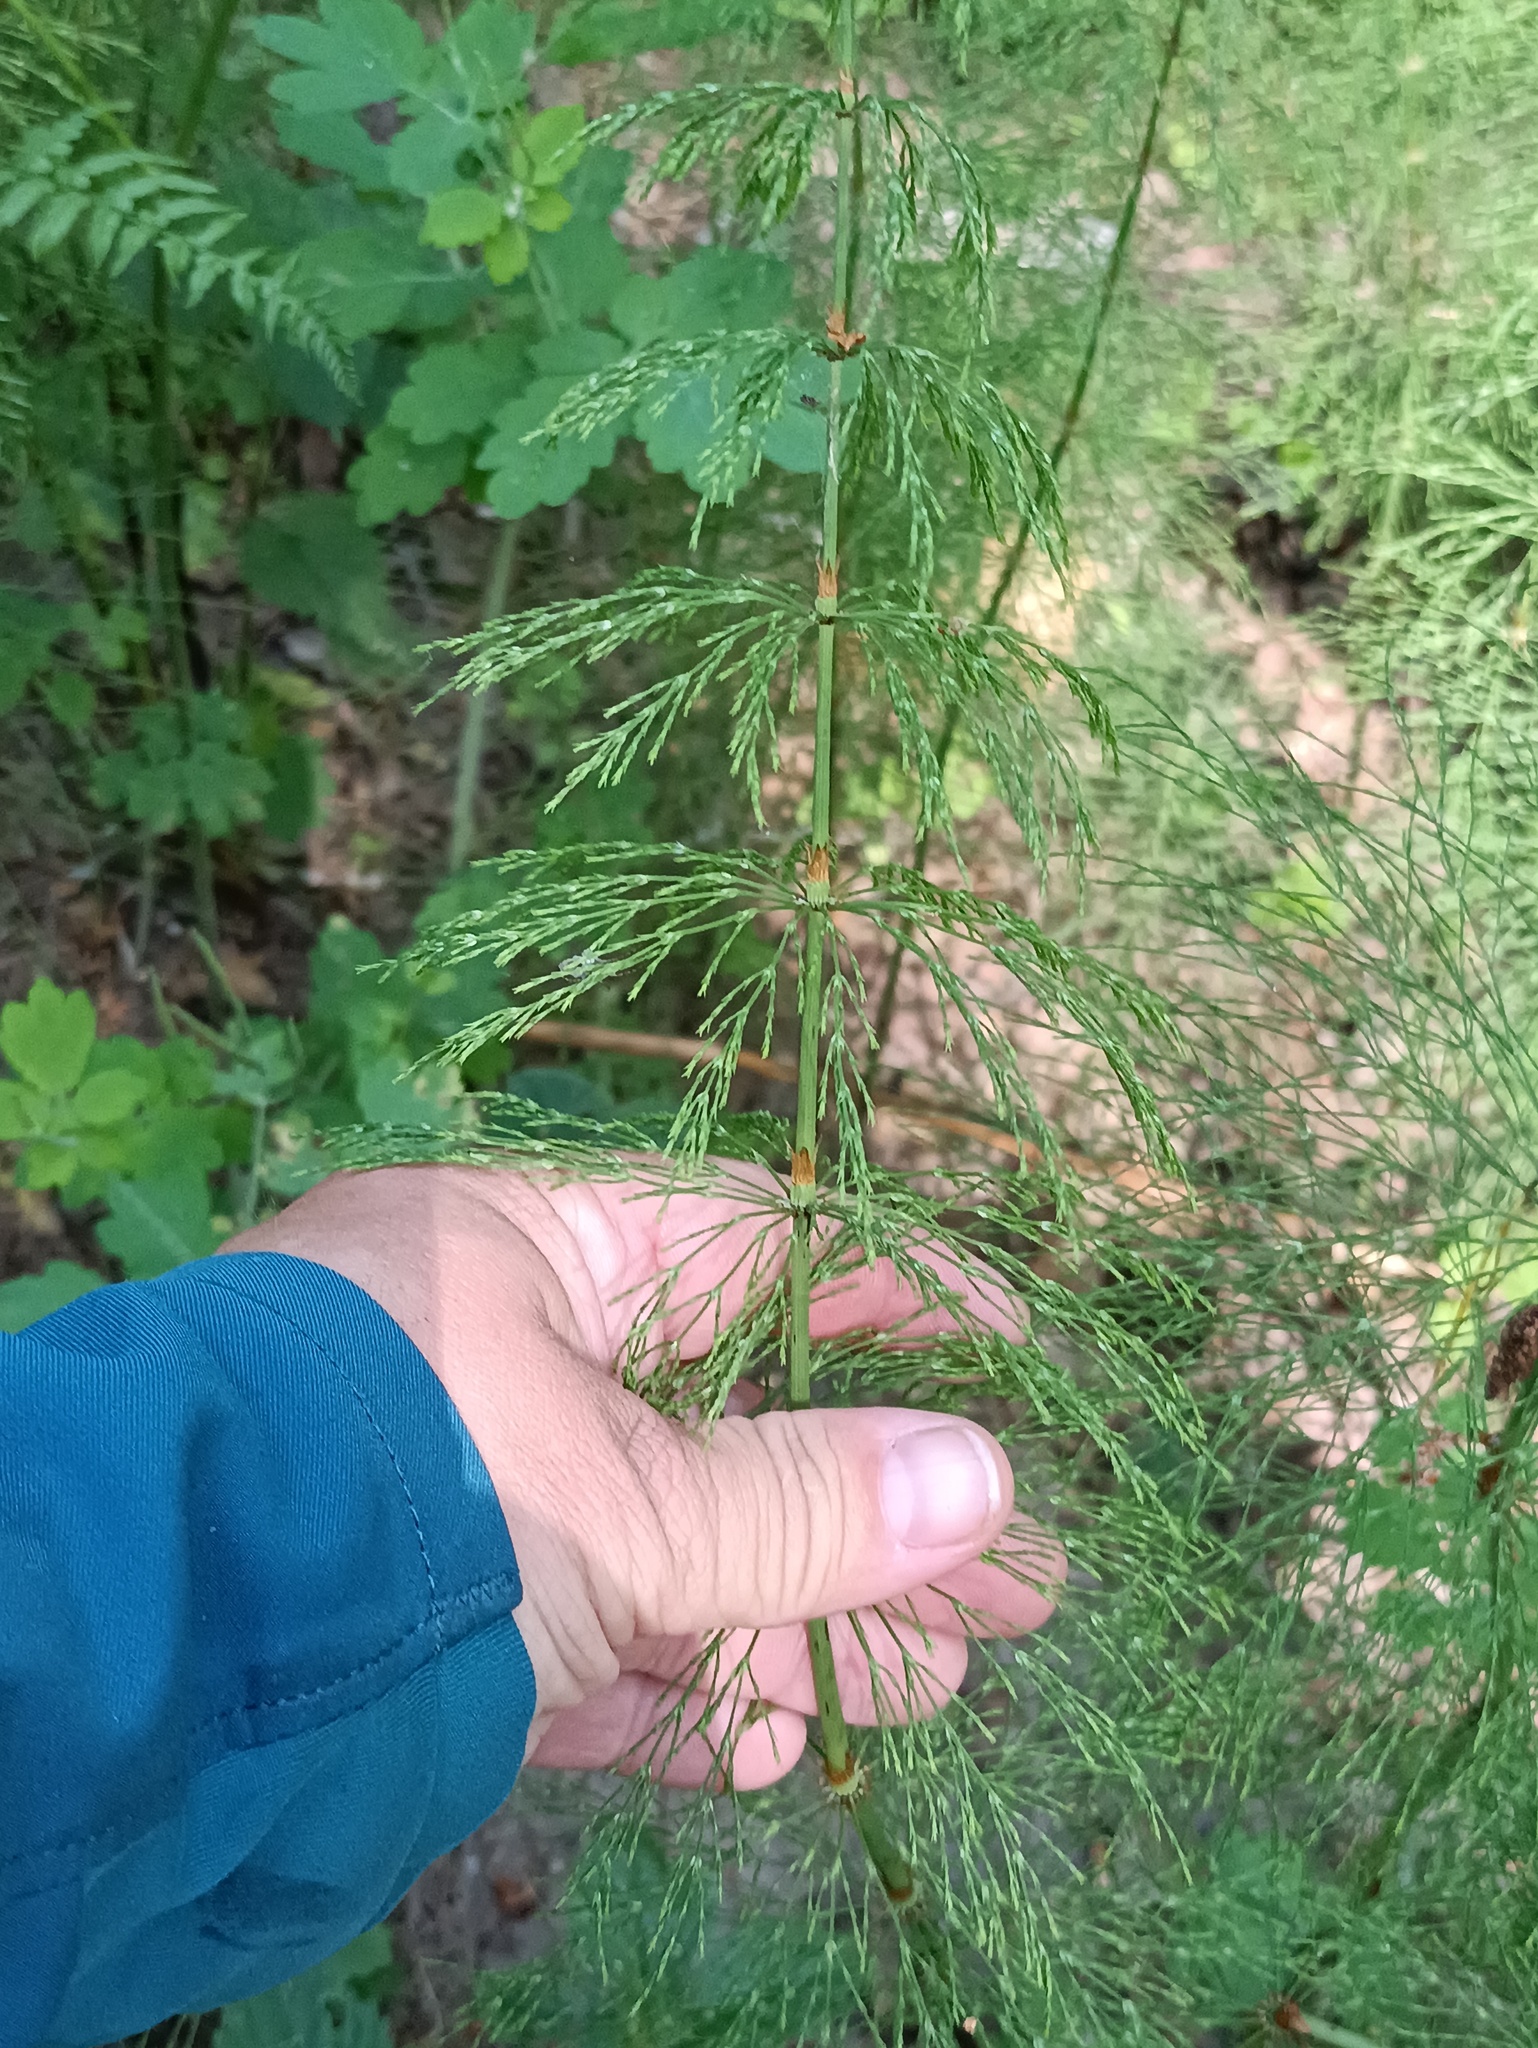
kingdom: Plantae
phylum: Tracheophyta
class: Polypodiopsida
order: Equisetales
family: Equisetaceae
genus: Equisetum
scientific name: Equisetum sylvaticum
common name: Wood horsetail
